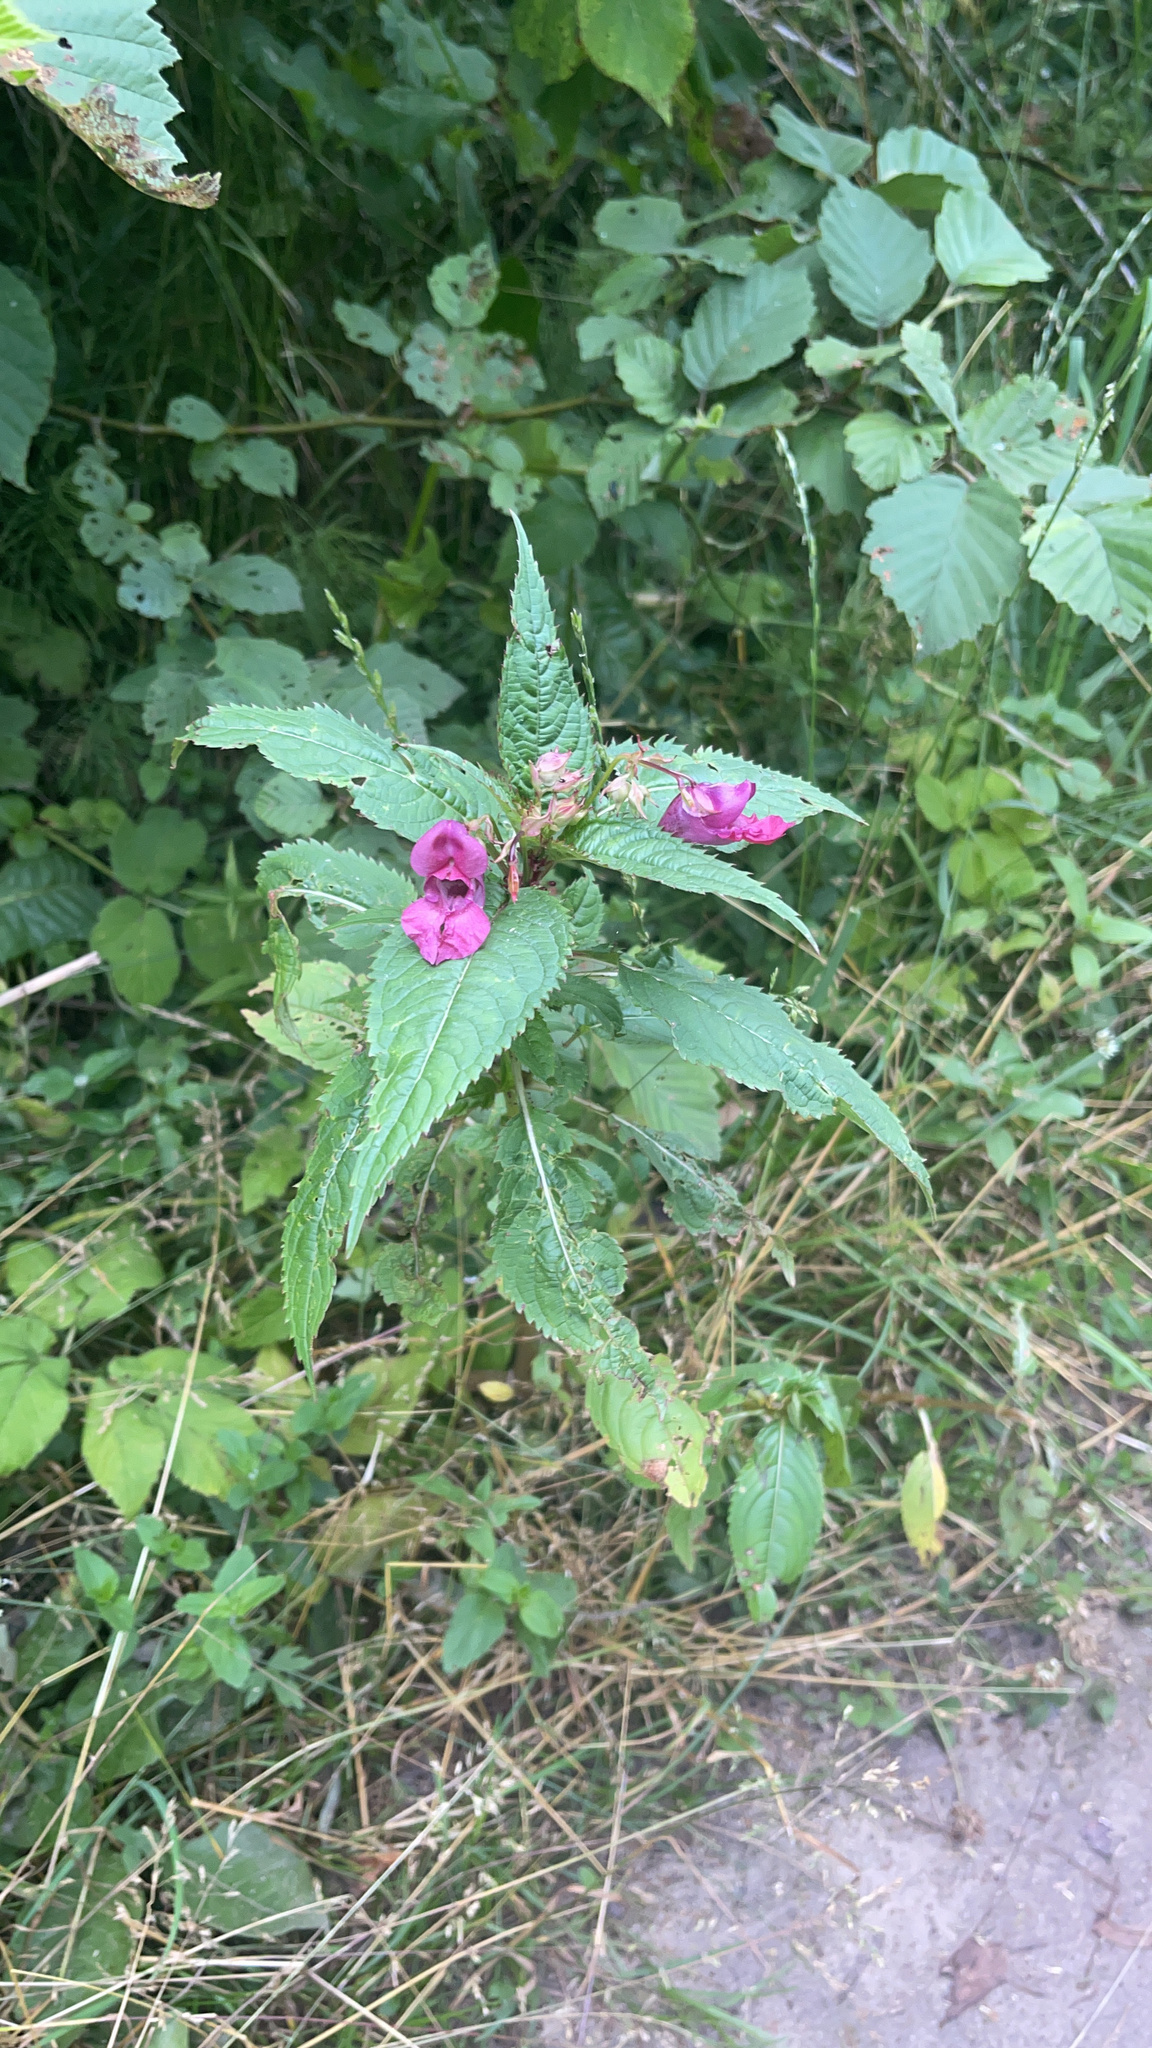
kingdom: Plantae
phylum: Tracheophyta
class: Magnoliopsida
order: Ericales
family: Balsaminaceae
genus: Impatiens
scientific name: Impatiens glandulifera
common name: Himalayan balsam
